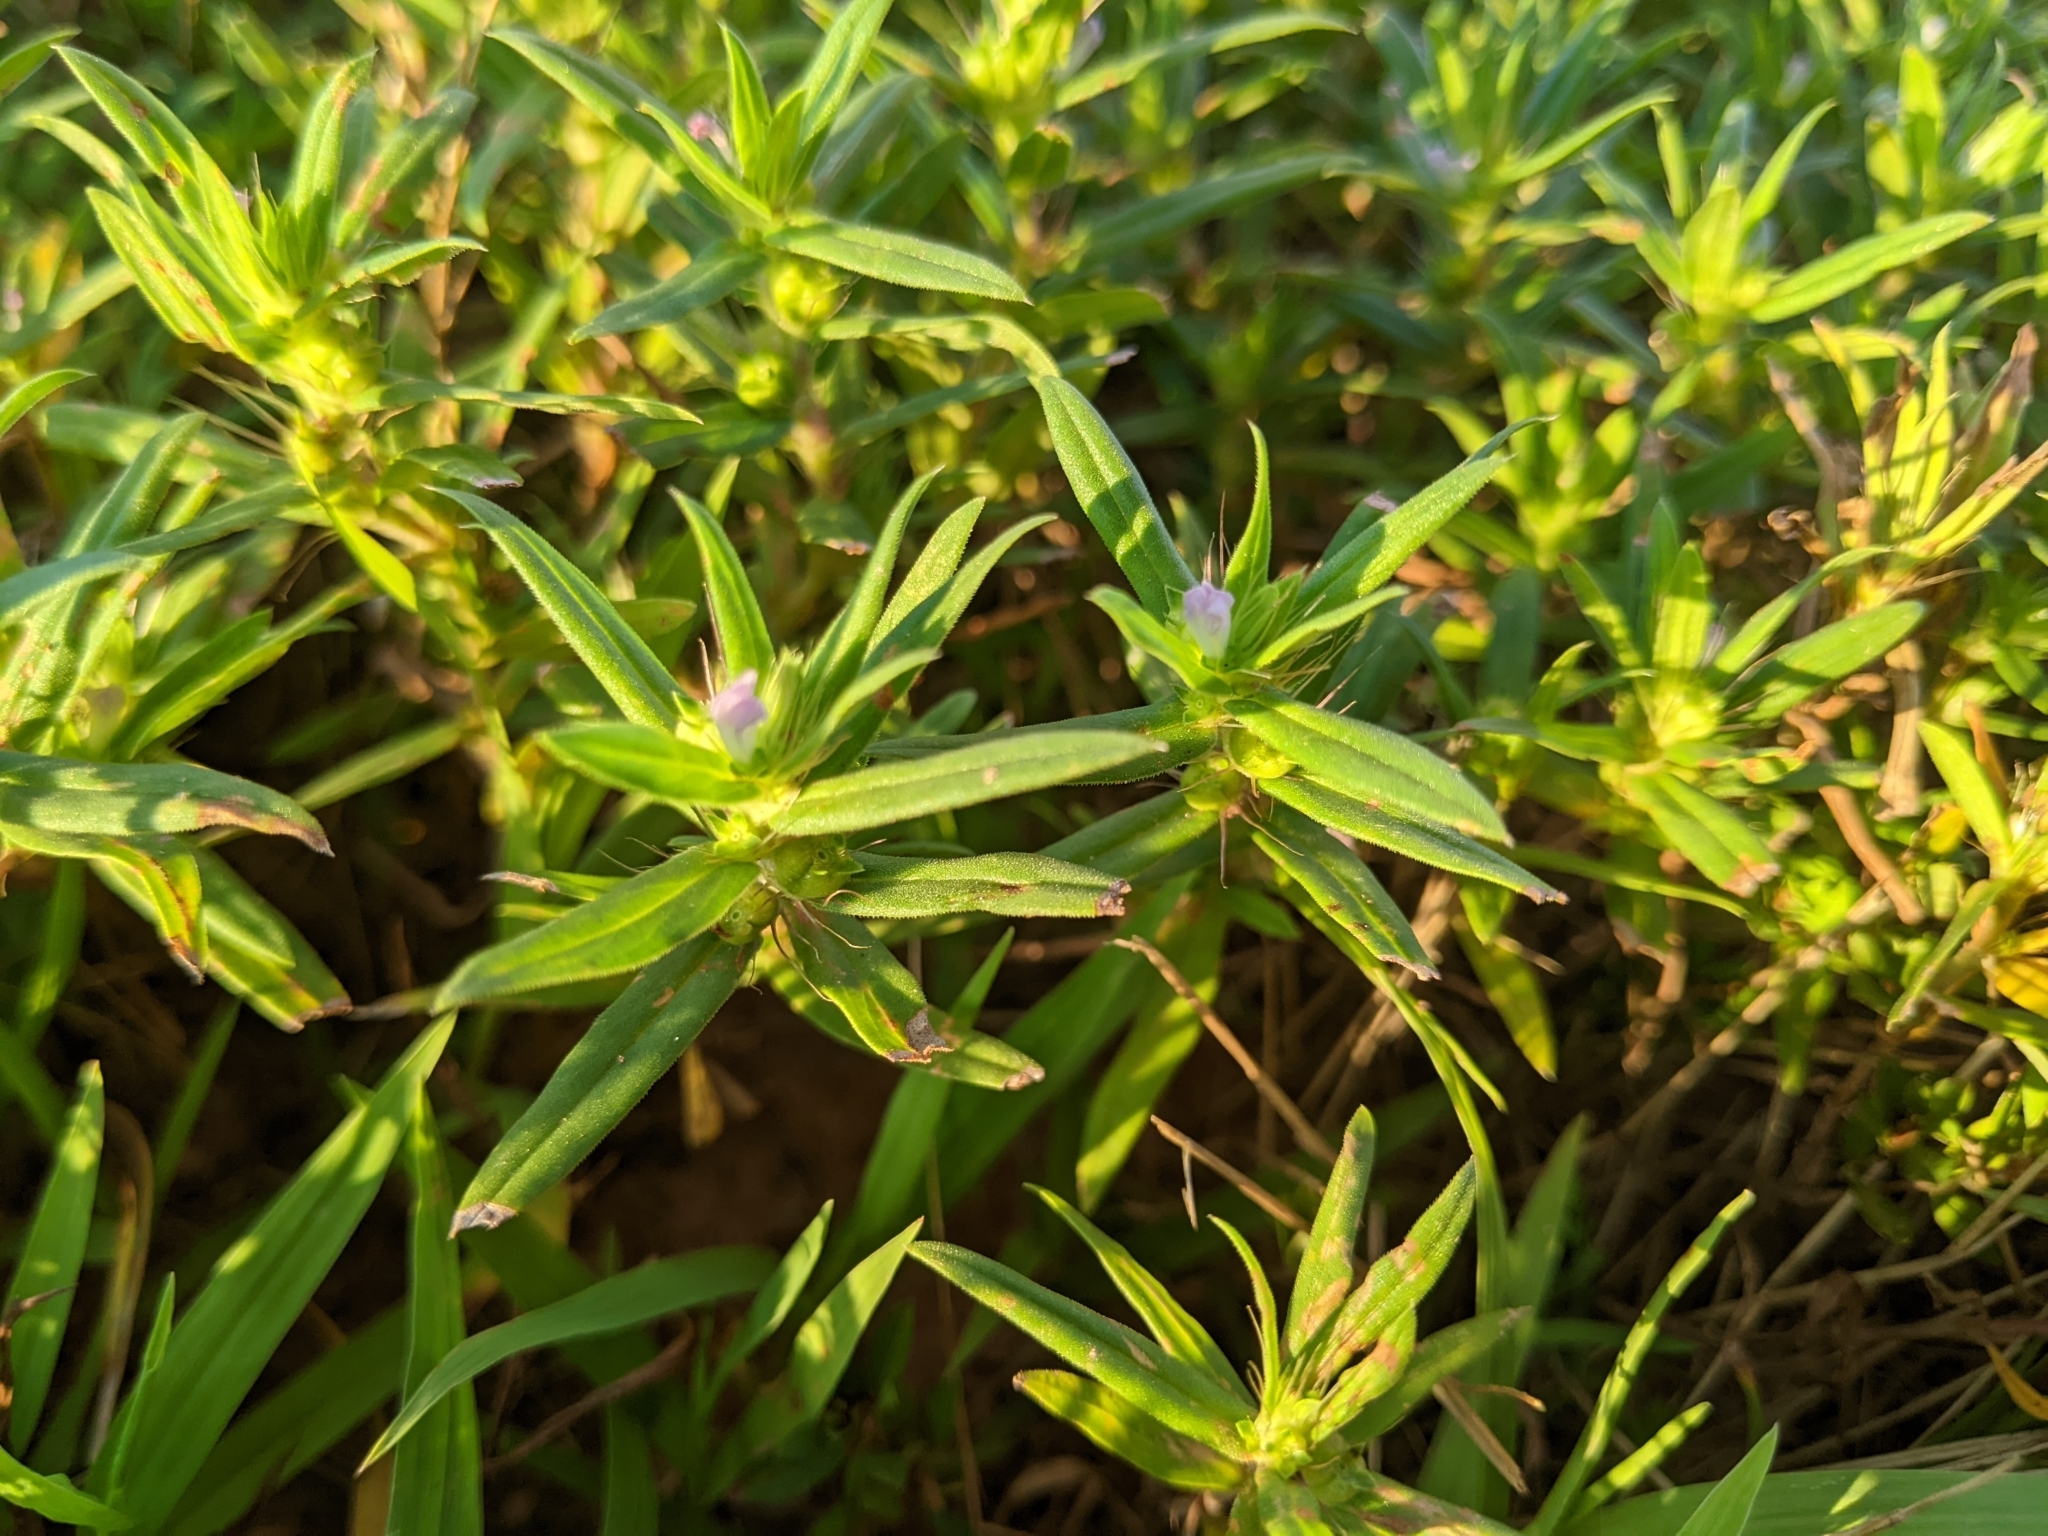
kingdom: Plantae
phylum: Tracheophyta
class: Magnoliopsida
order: Gentianales
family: Rubiaceae
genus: Hexasepalum
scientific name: Hexasepalum teres
